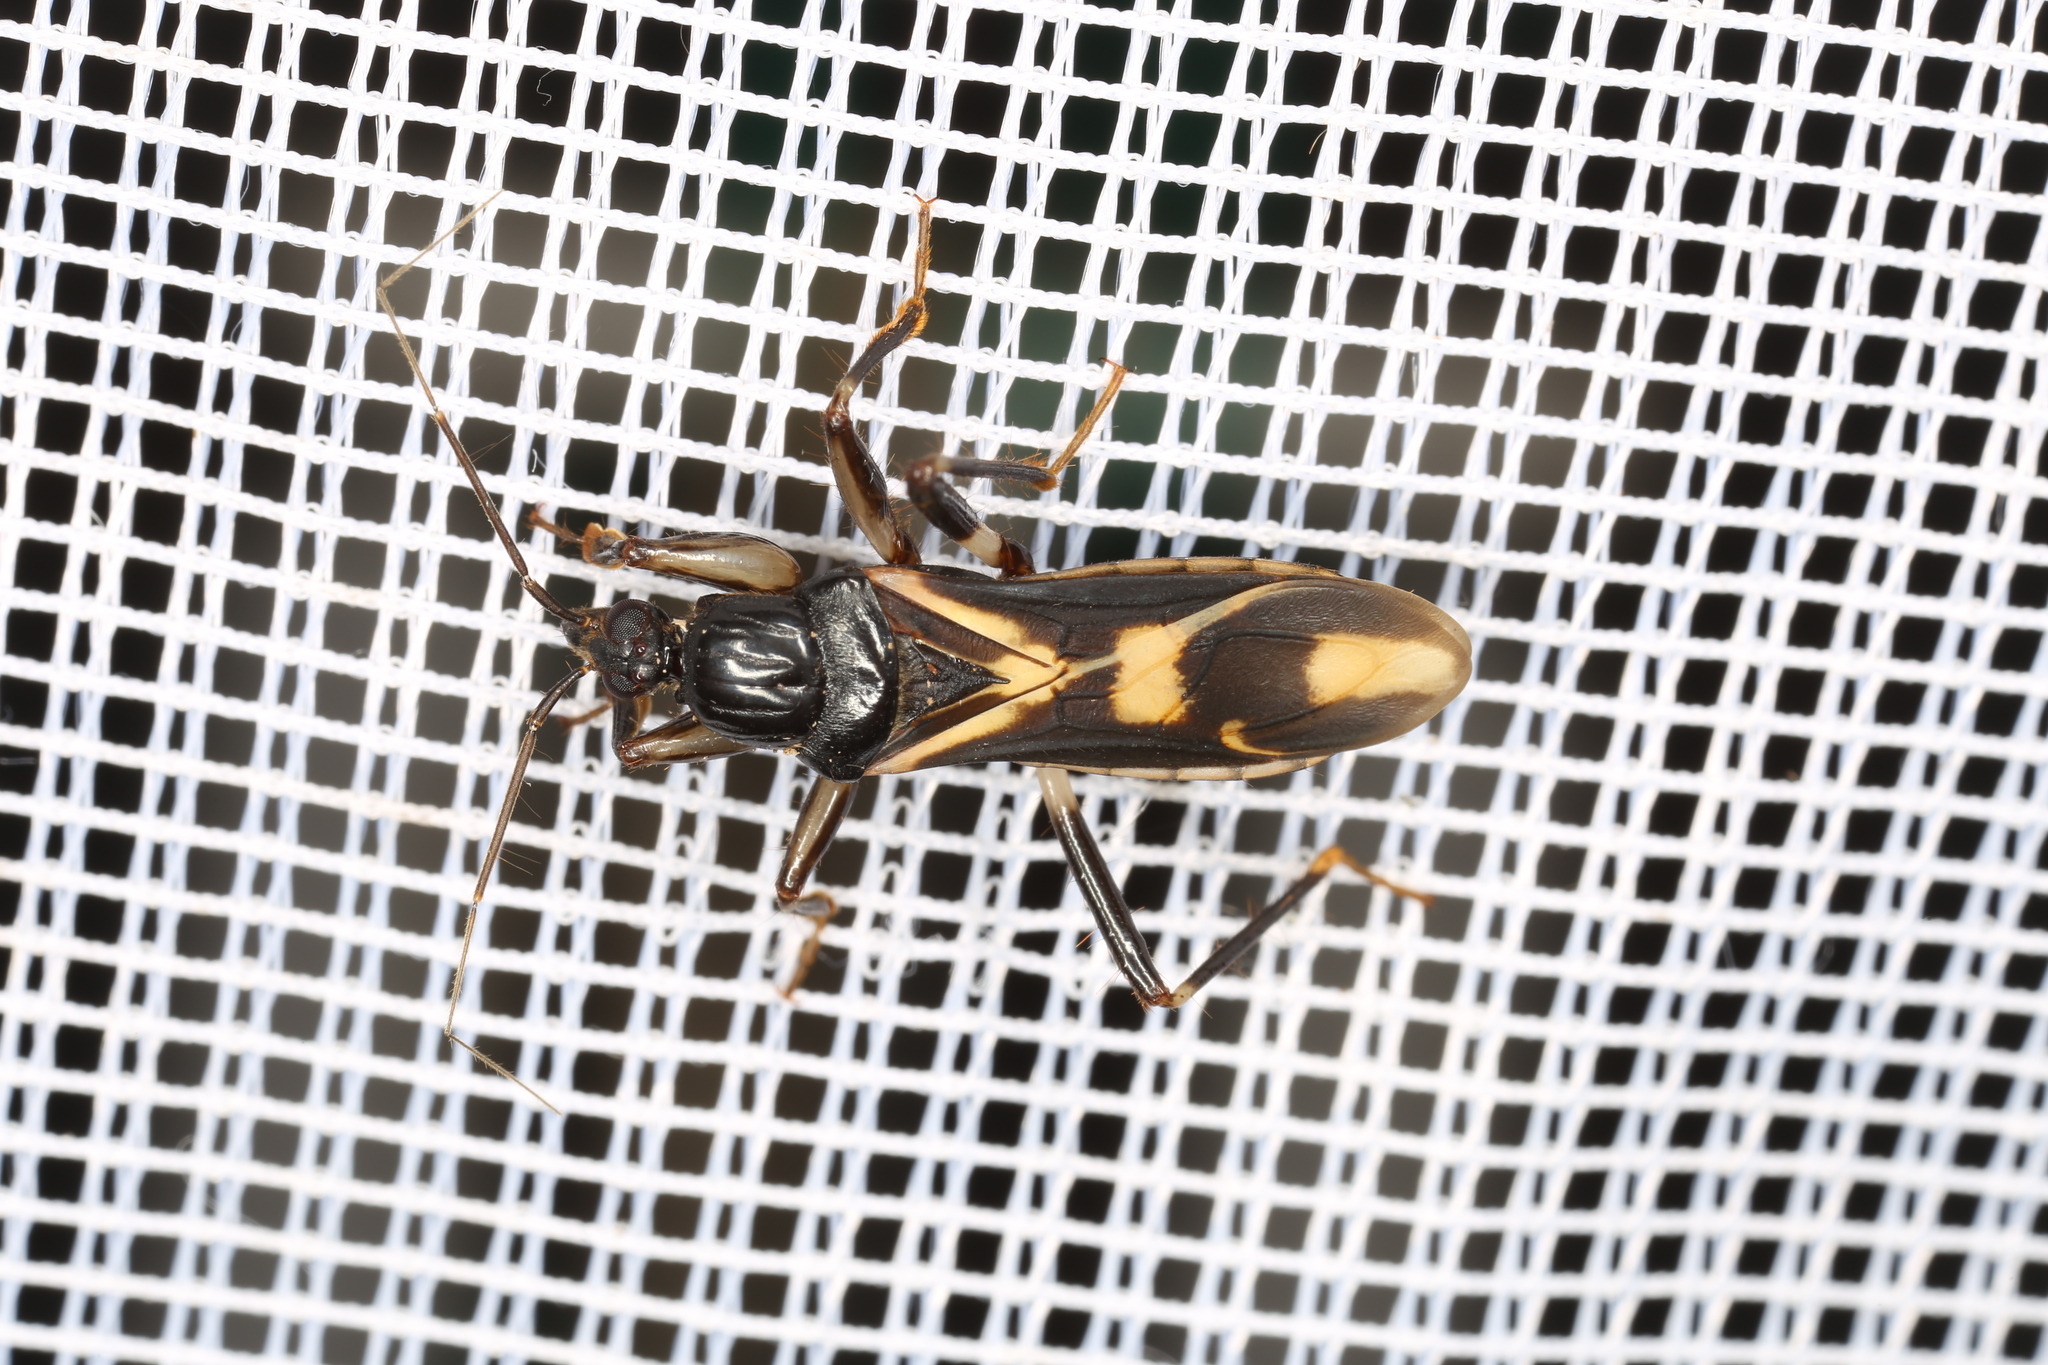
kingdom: Animalia
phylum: Arthropoda
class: Insecta
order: Hemiptera
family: Reduviidae
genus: Rasahus
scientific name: Rasahus sulcicollis
